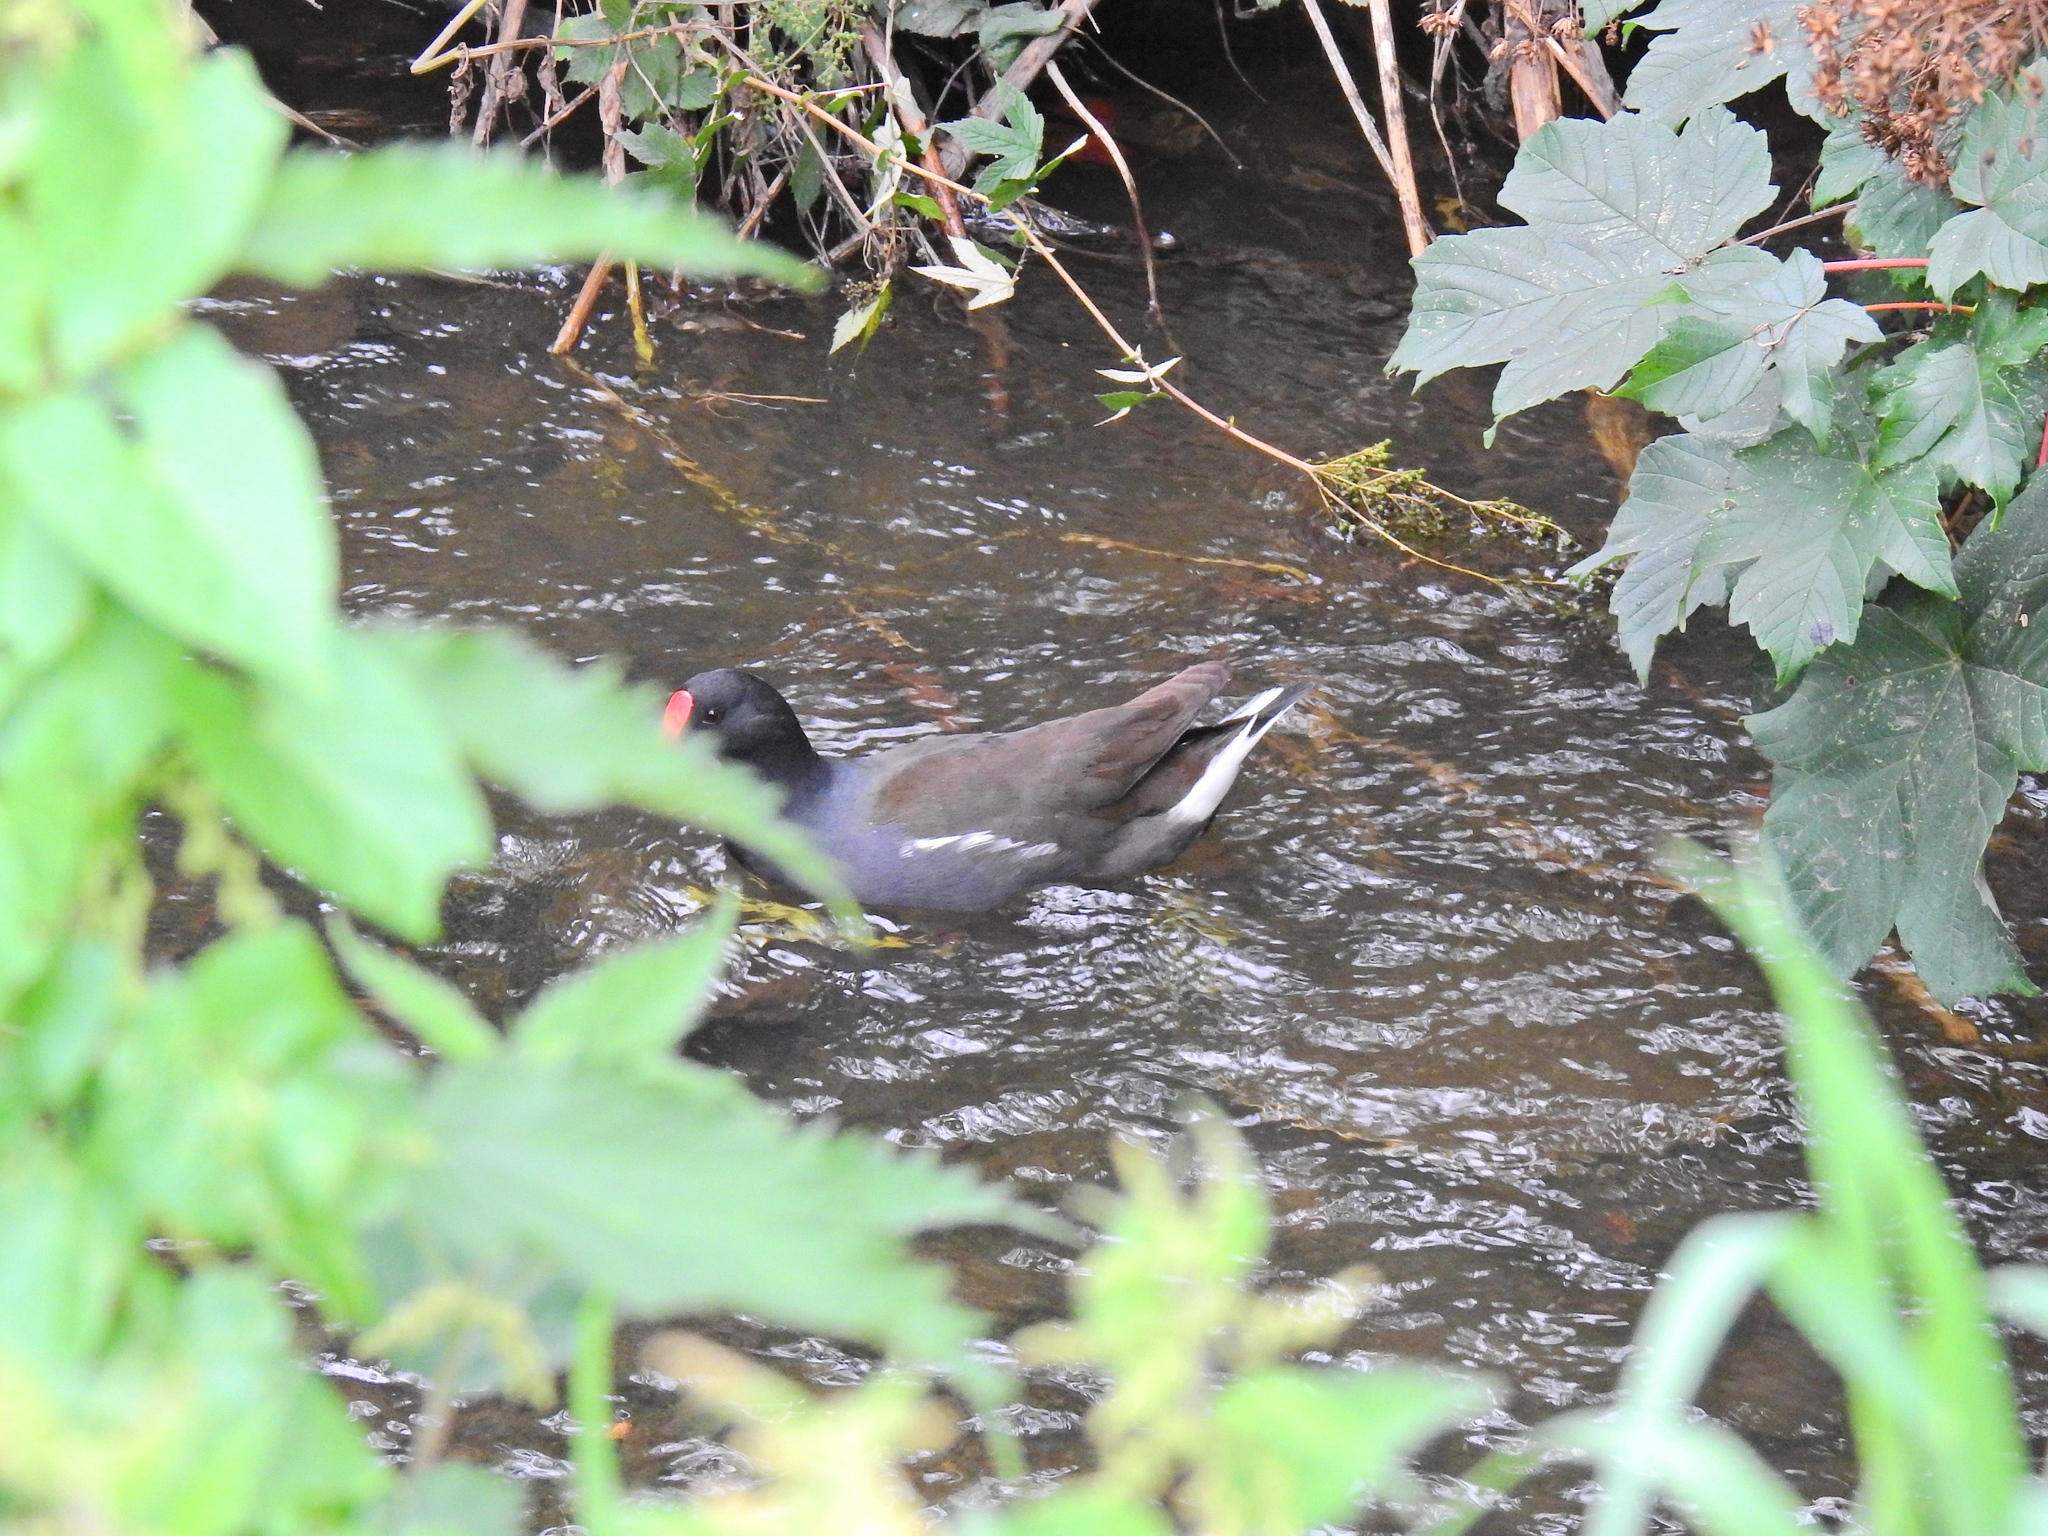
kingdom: Animalia
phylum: Chordata
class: Aves
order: Gruiformes
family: Rallidae
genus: Gallinula
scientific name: Gallinula chloropus
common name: Common moorhen
